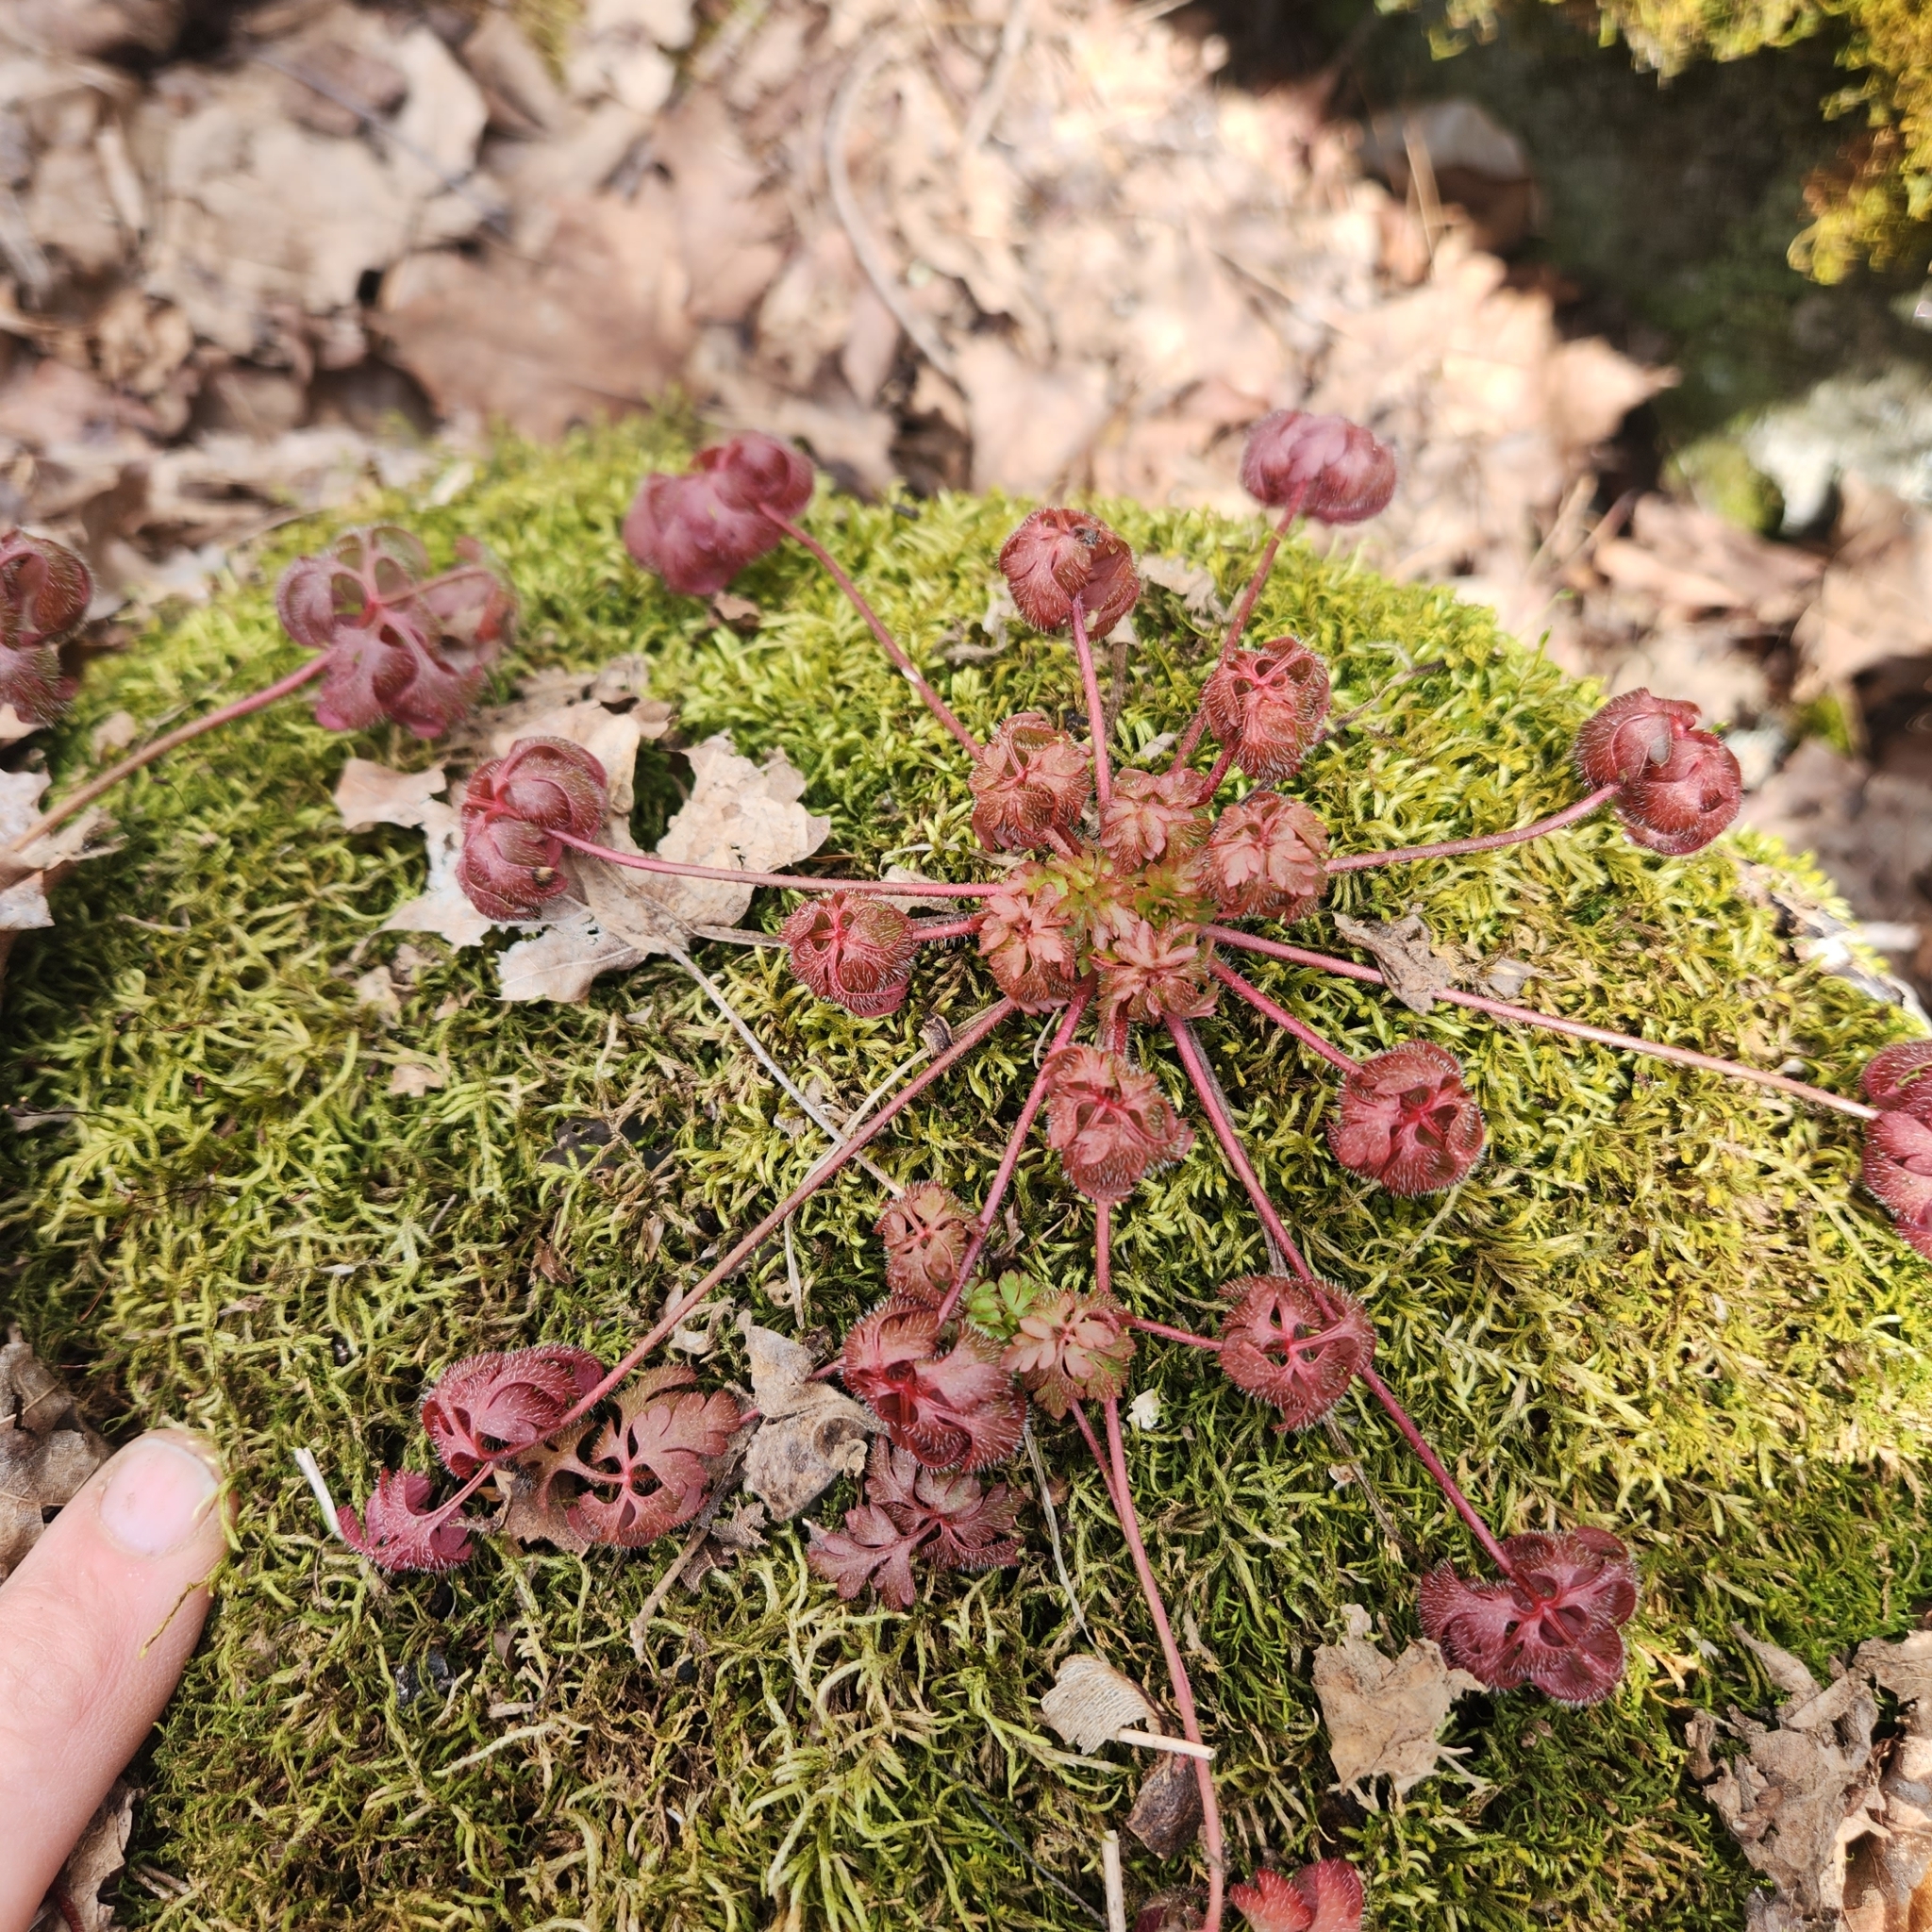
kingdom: Plantae
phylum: Tracheophyta
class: Magnoliopsida
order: Geraniales
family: Geraniaceae
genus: Geranium
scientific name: Geranium robertianum
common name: Herb-robert
